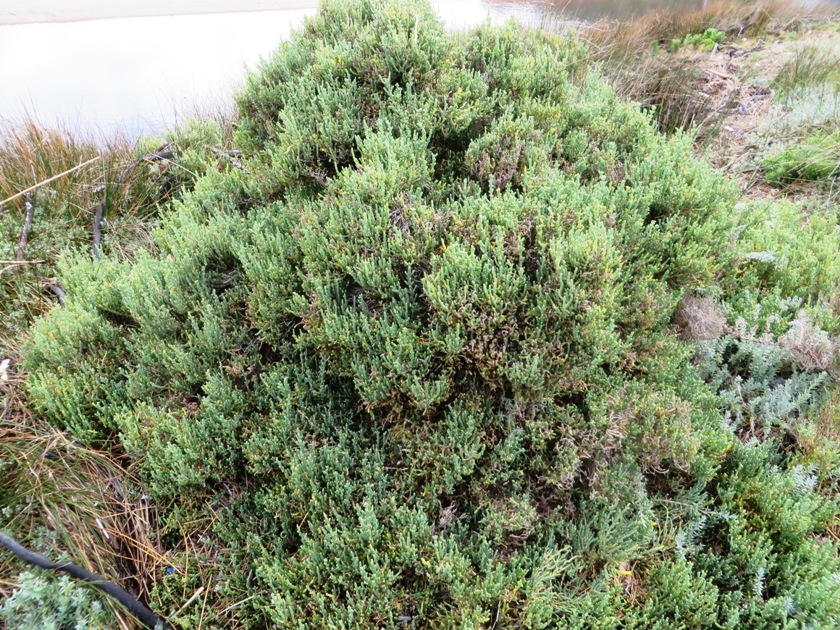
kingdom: Plantae
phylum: Tracheophyta
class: Magnoliopsida
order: Caryophyllales
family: Amaranthaceae
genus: Salicornia
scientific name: Salicornia littorea
